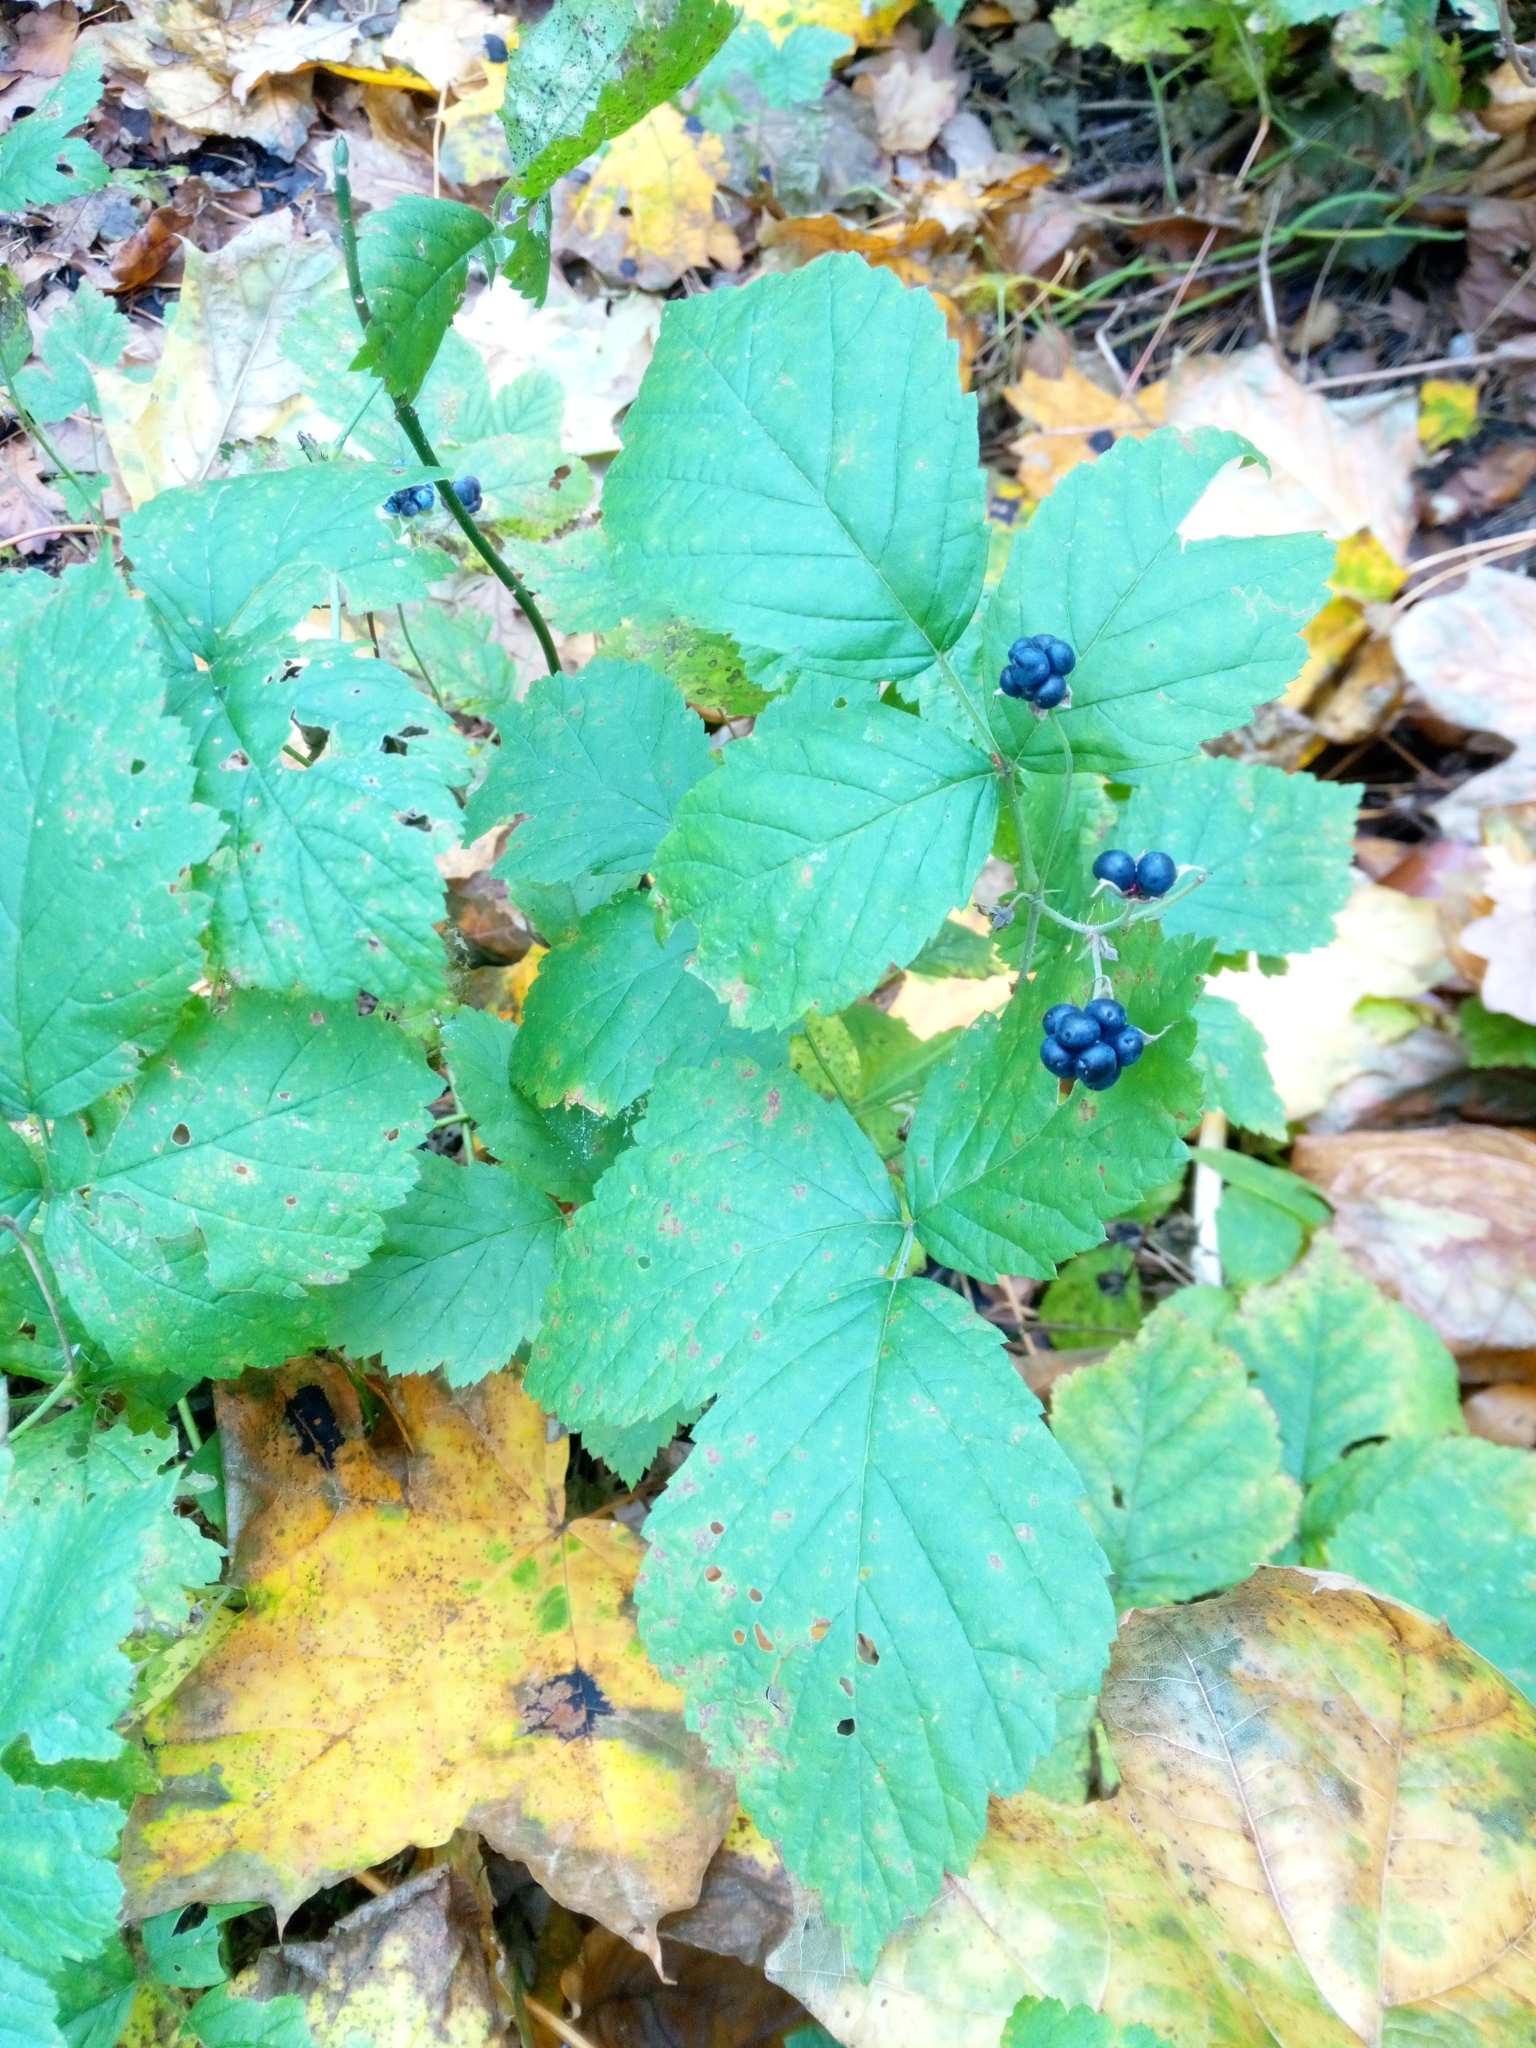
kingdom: Plantae
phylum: Tracheophyta
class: Magnoliopsida
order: Rosales
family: Rosaceae
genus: Rubus
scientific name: Rubus caesius
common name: Dewberry
